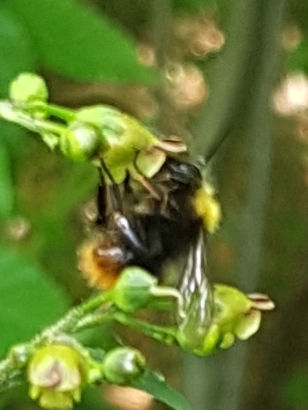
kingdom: Animalia
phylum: Arthropoda
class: Insecta
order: Hymenoptera
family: Apidae
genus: Bombus
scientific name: Bombus pratorum
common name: Early humble-bee
